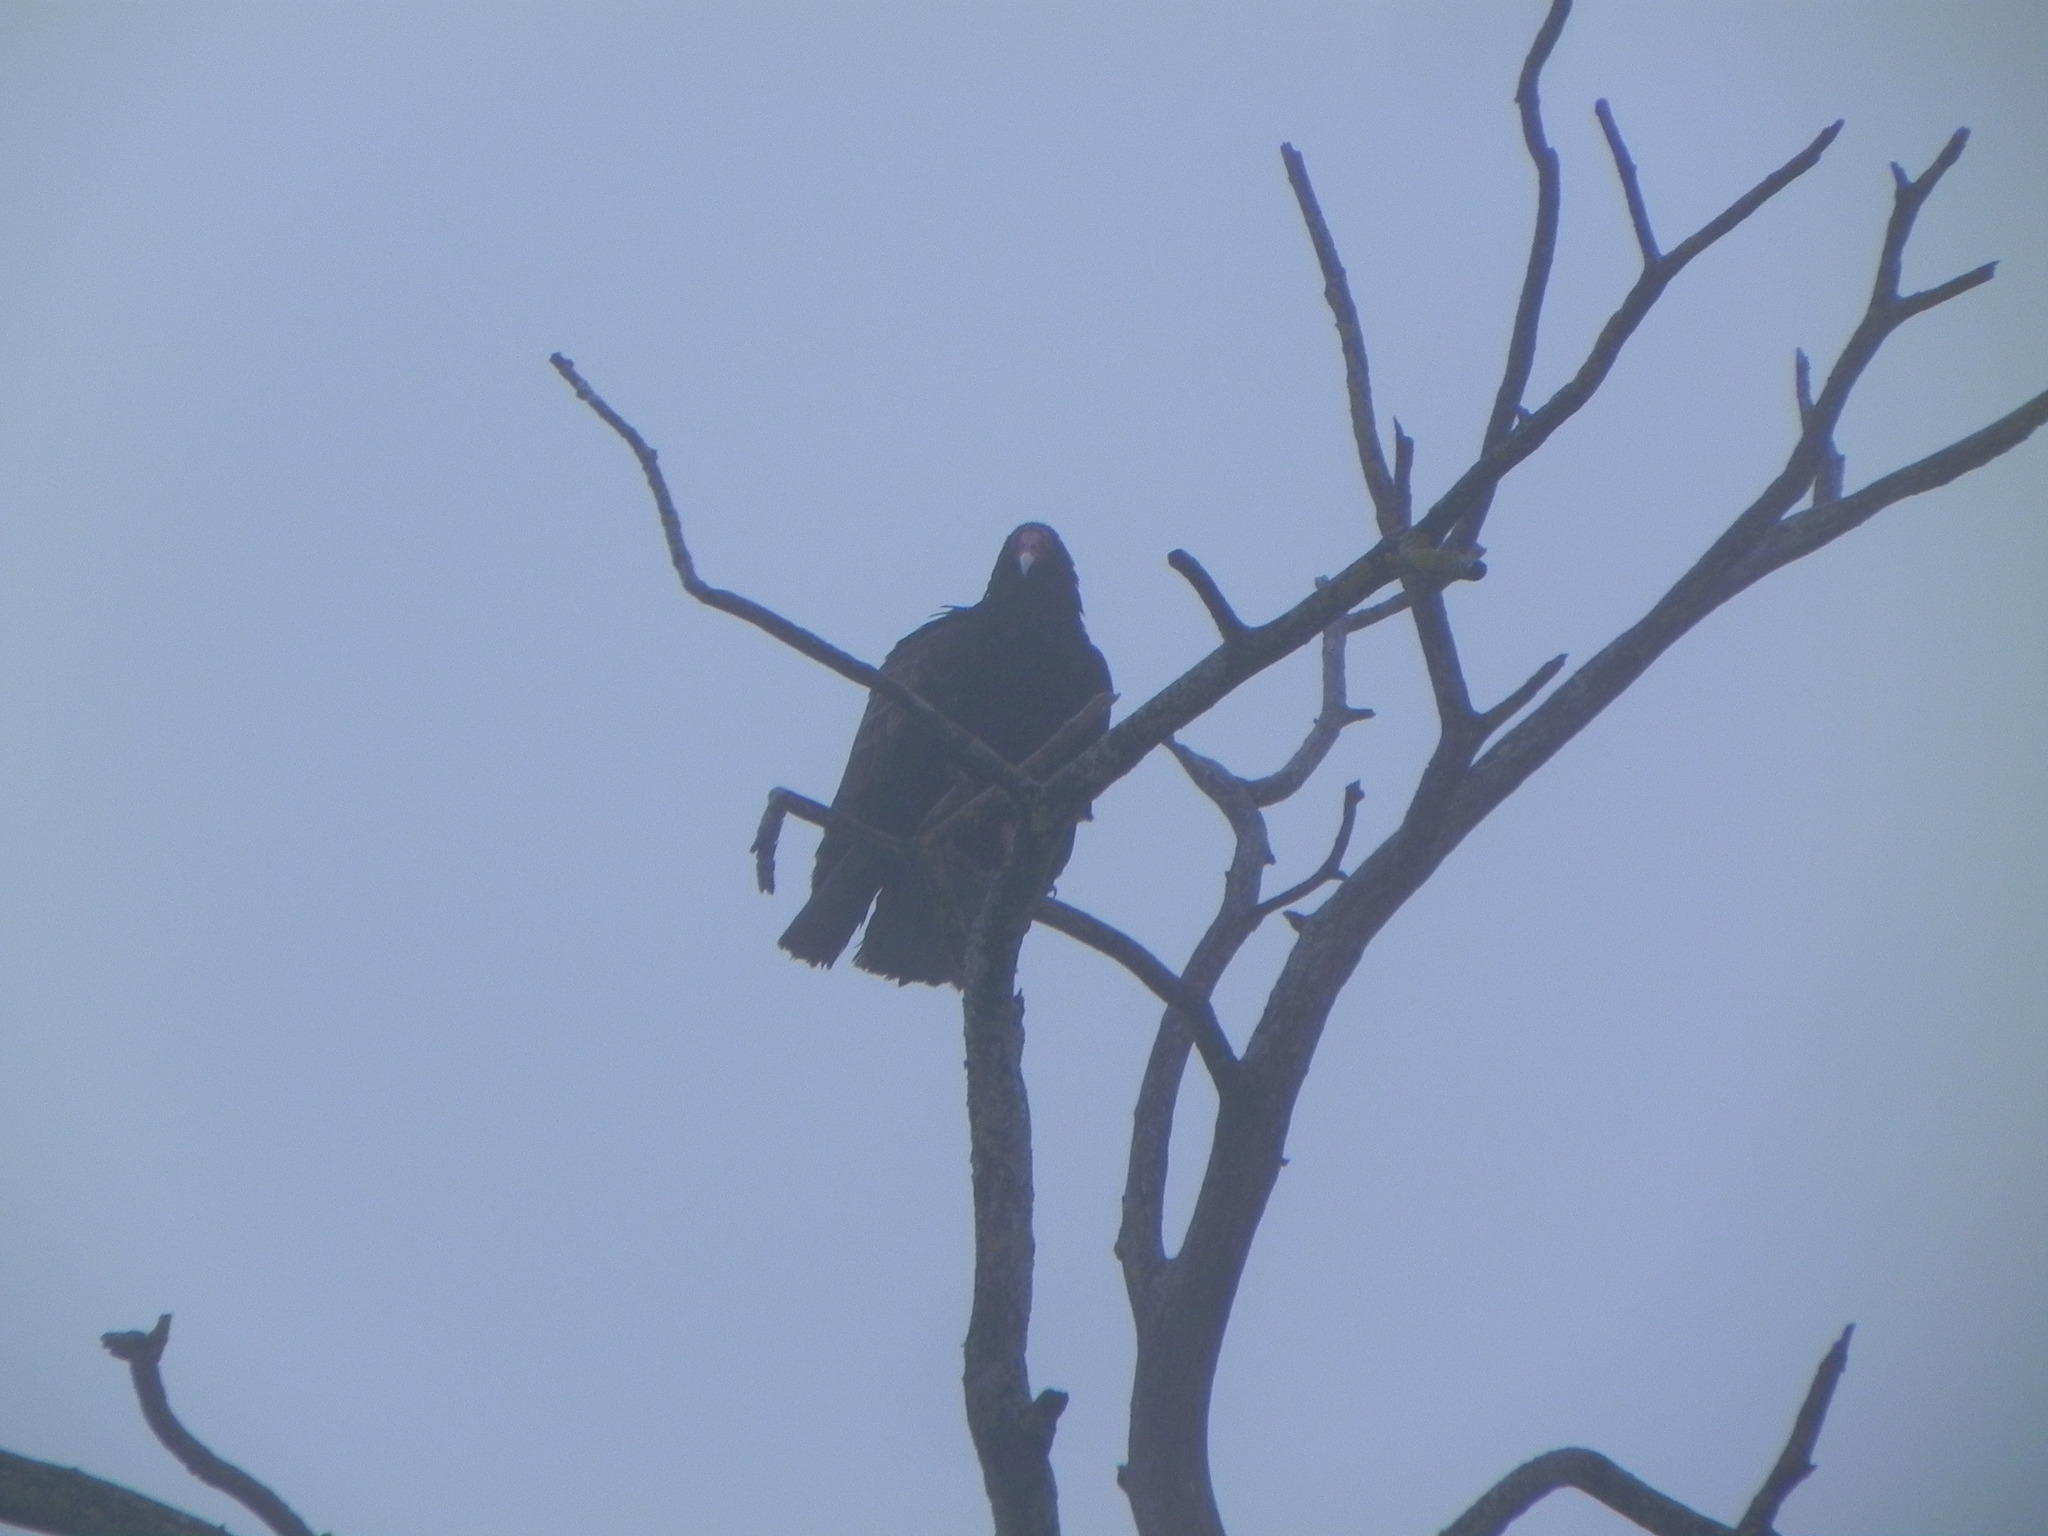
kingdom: Animalia
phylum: Chordata
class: Aves
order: Accipitriformes
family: Cathartidae
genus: Cathartes
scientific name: Cathartes aura
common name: Turkey vulture
